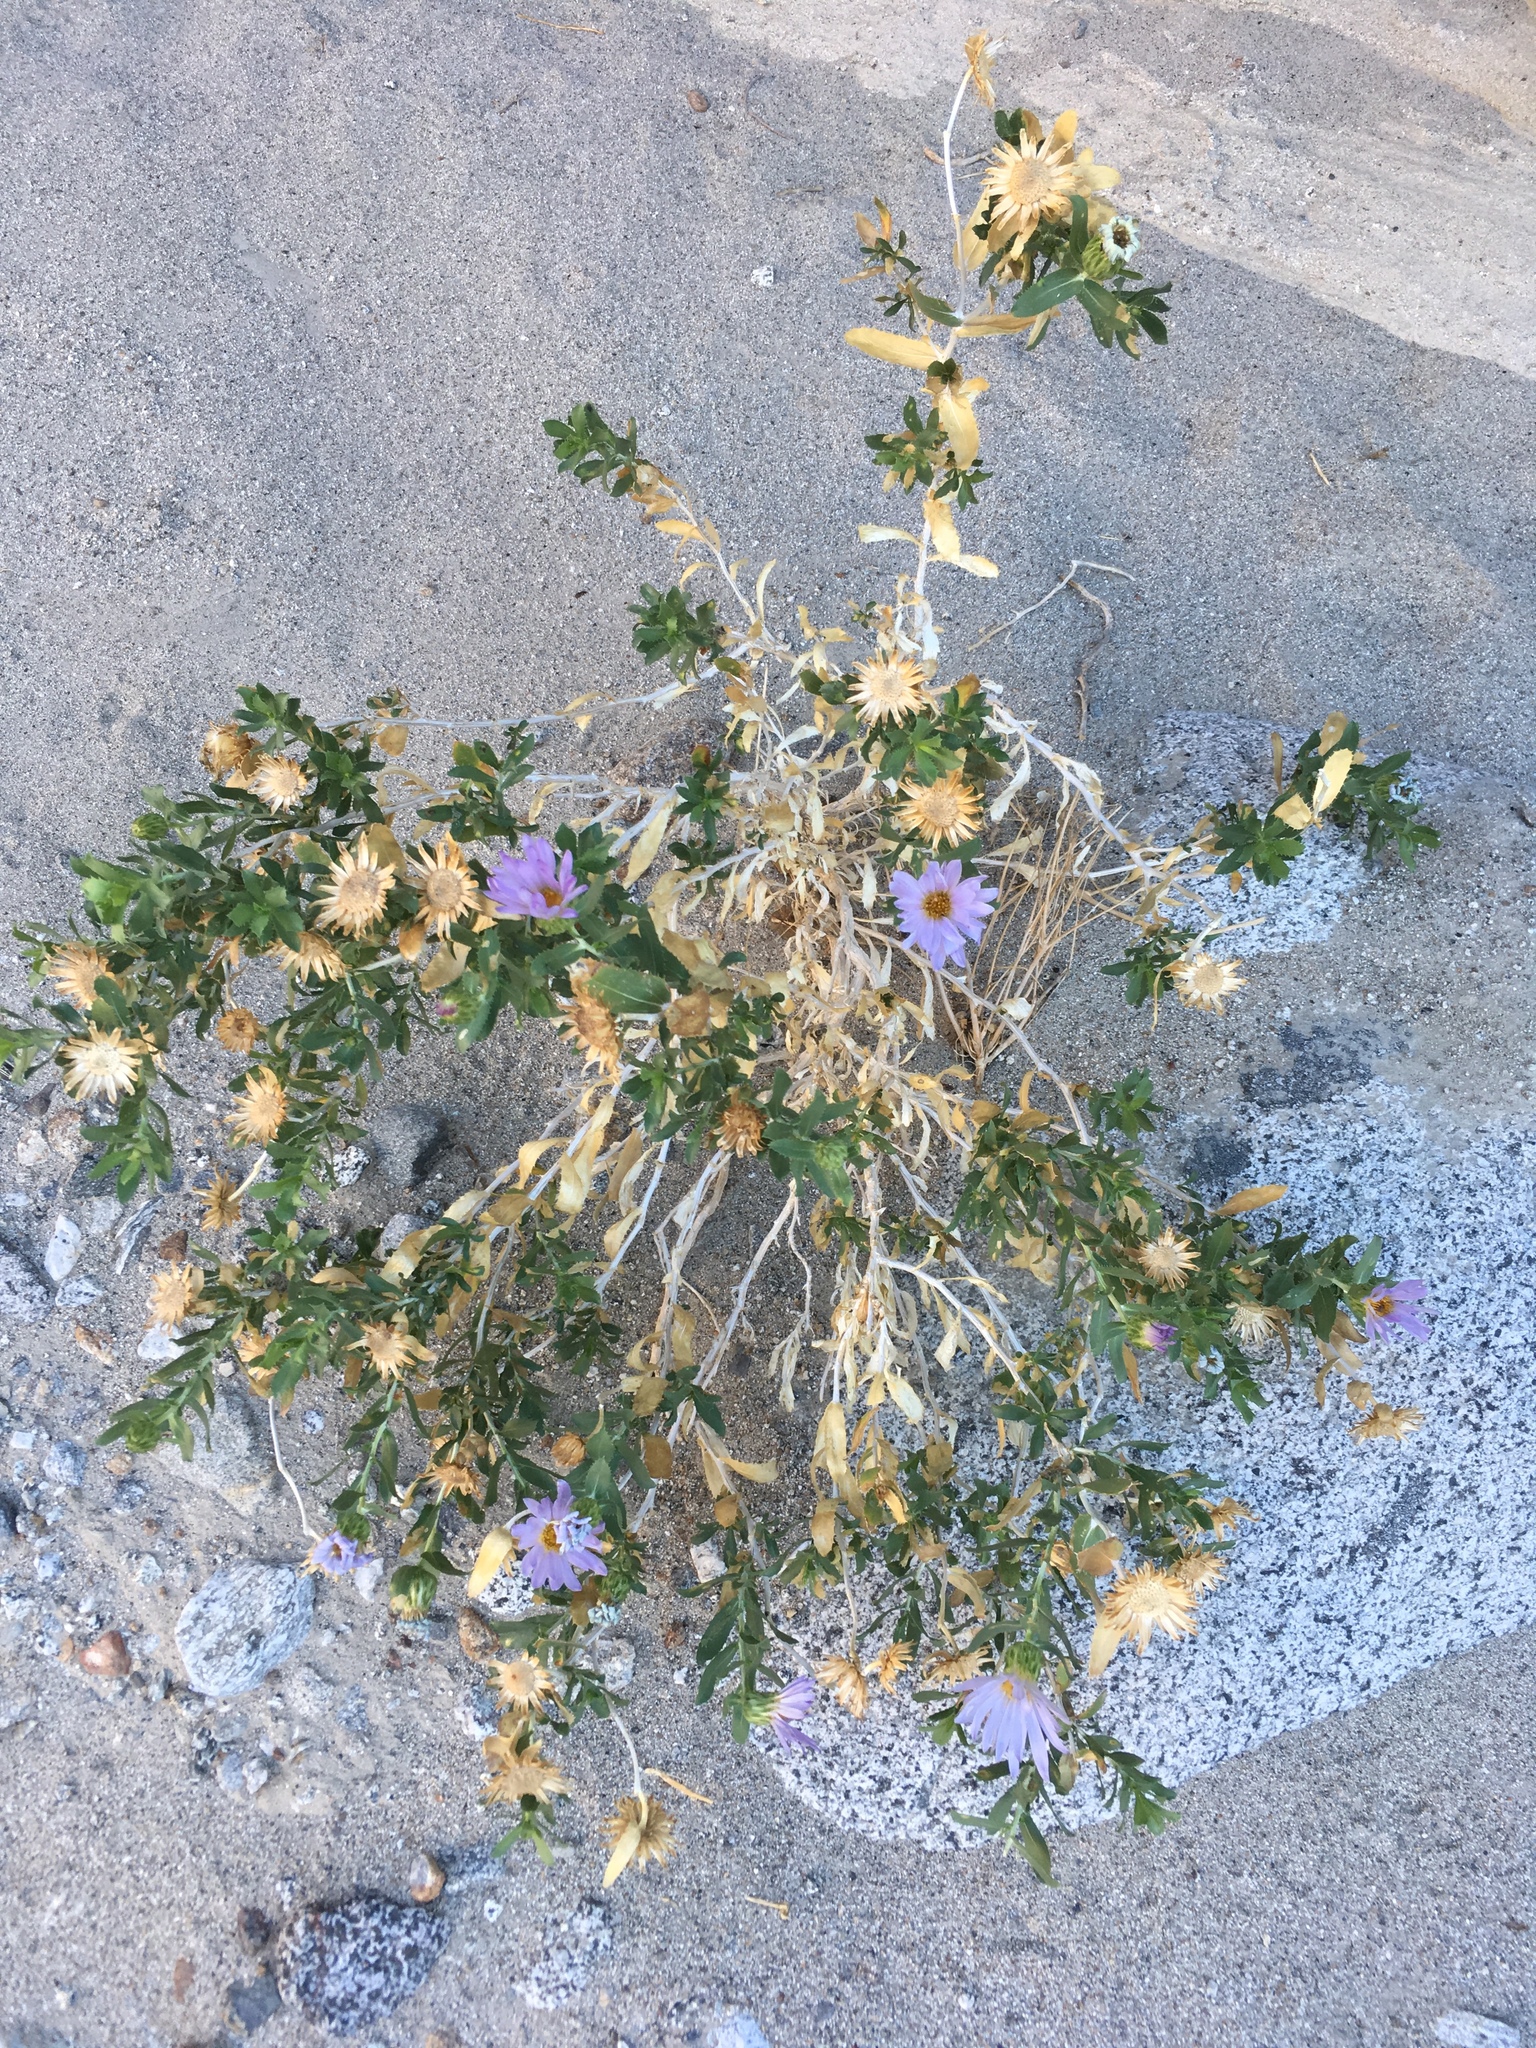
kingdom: Plantae
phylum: Tracheophyta
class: Magnoliopsida
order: Asterales
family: Asteraceae
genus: Xylorhiza
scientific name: Xylorhiza orcuttii
